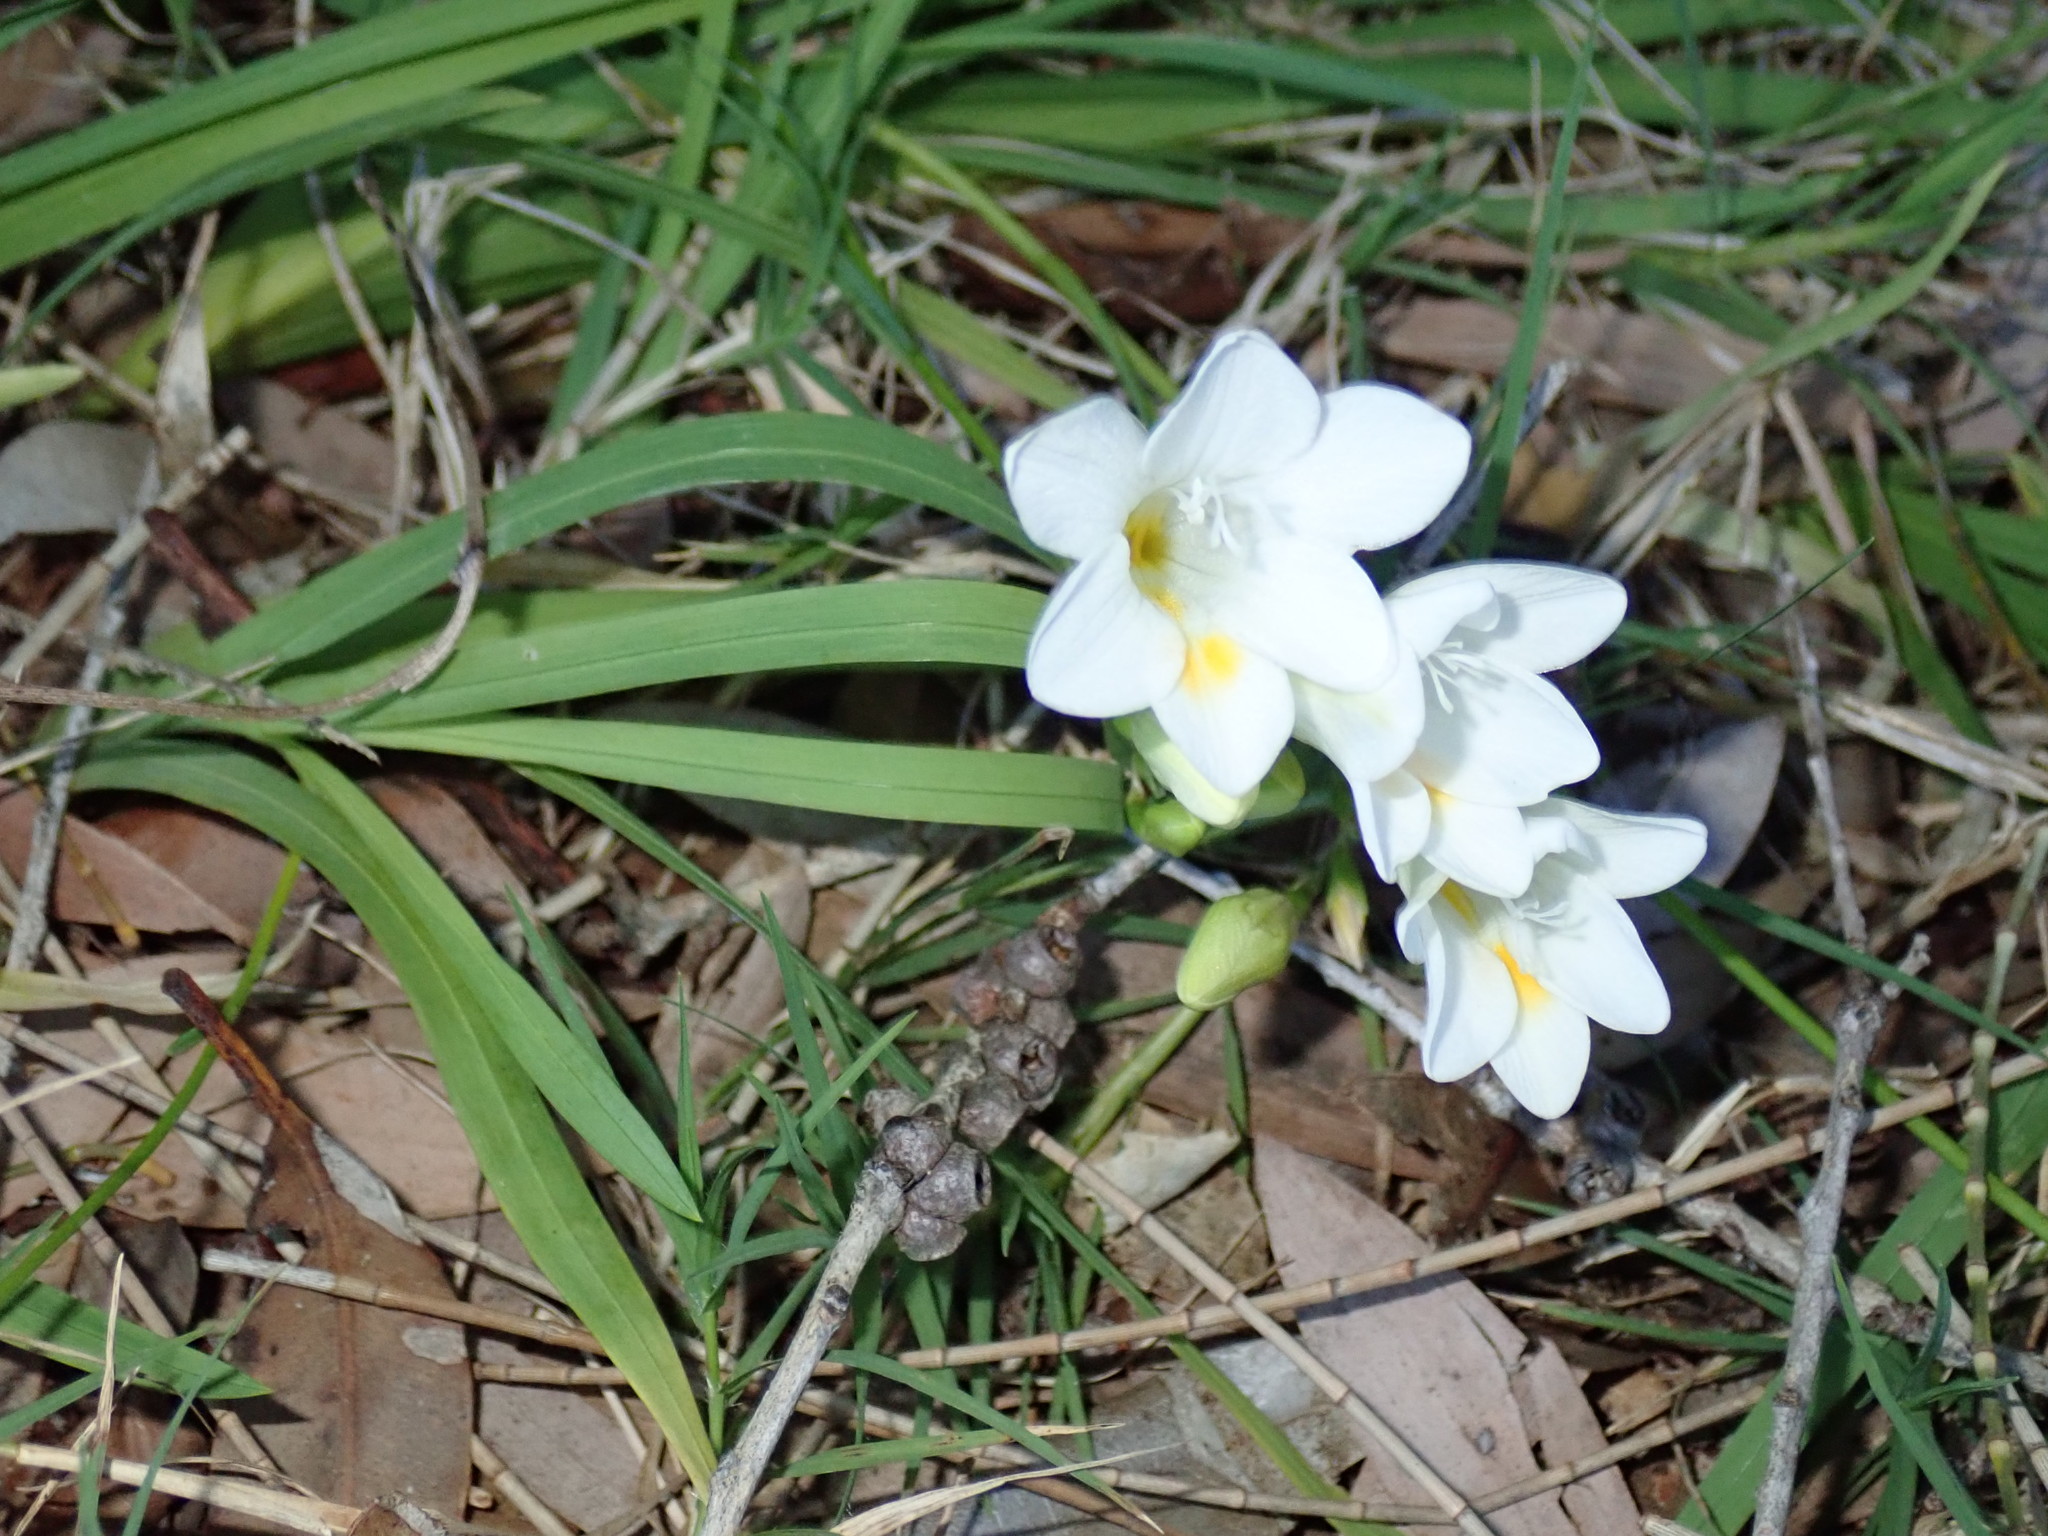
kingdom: Plantae
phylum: Tracheophyta
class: Liliopsida
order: Asparagales
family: Iridaceae
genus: Freesia
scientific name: Freesia leichtlinii
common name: Freesia
